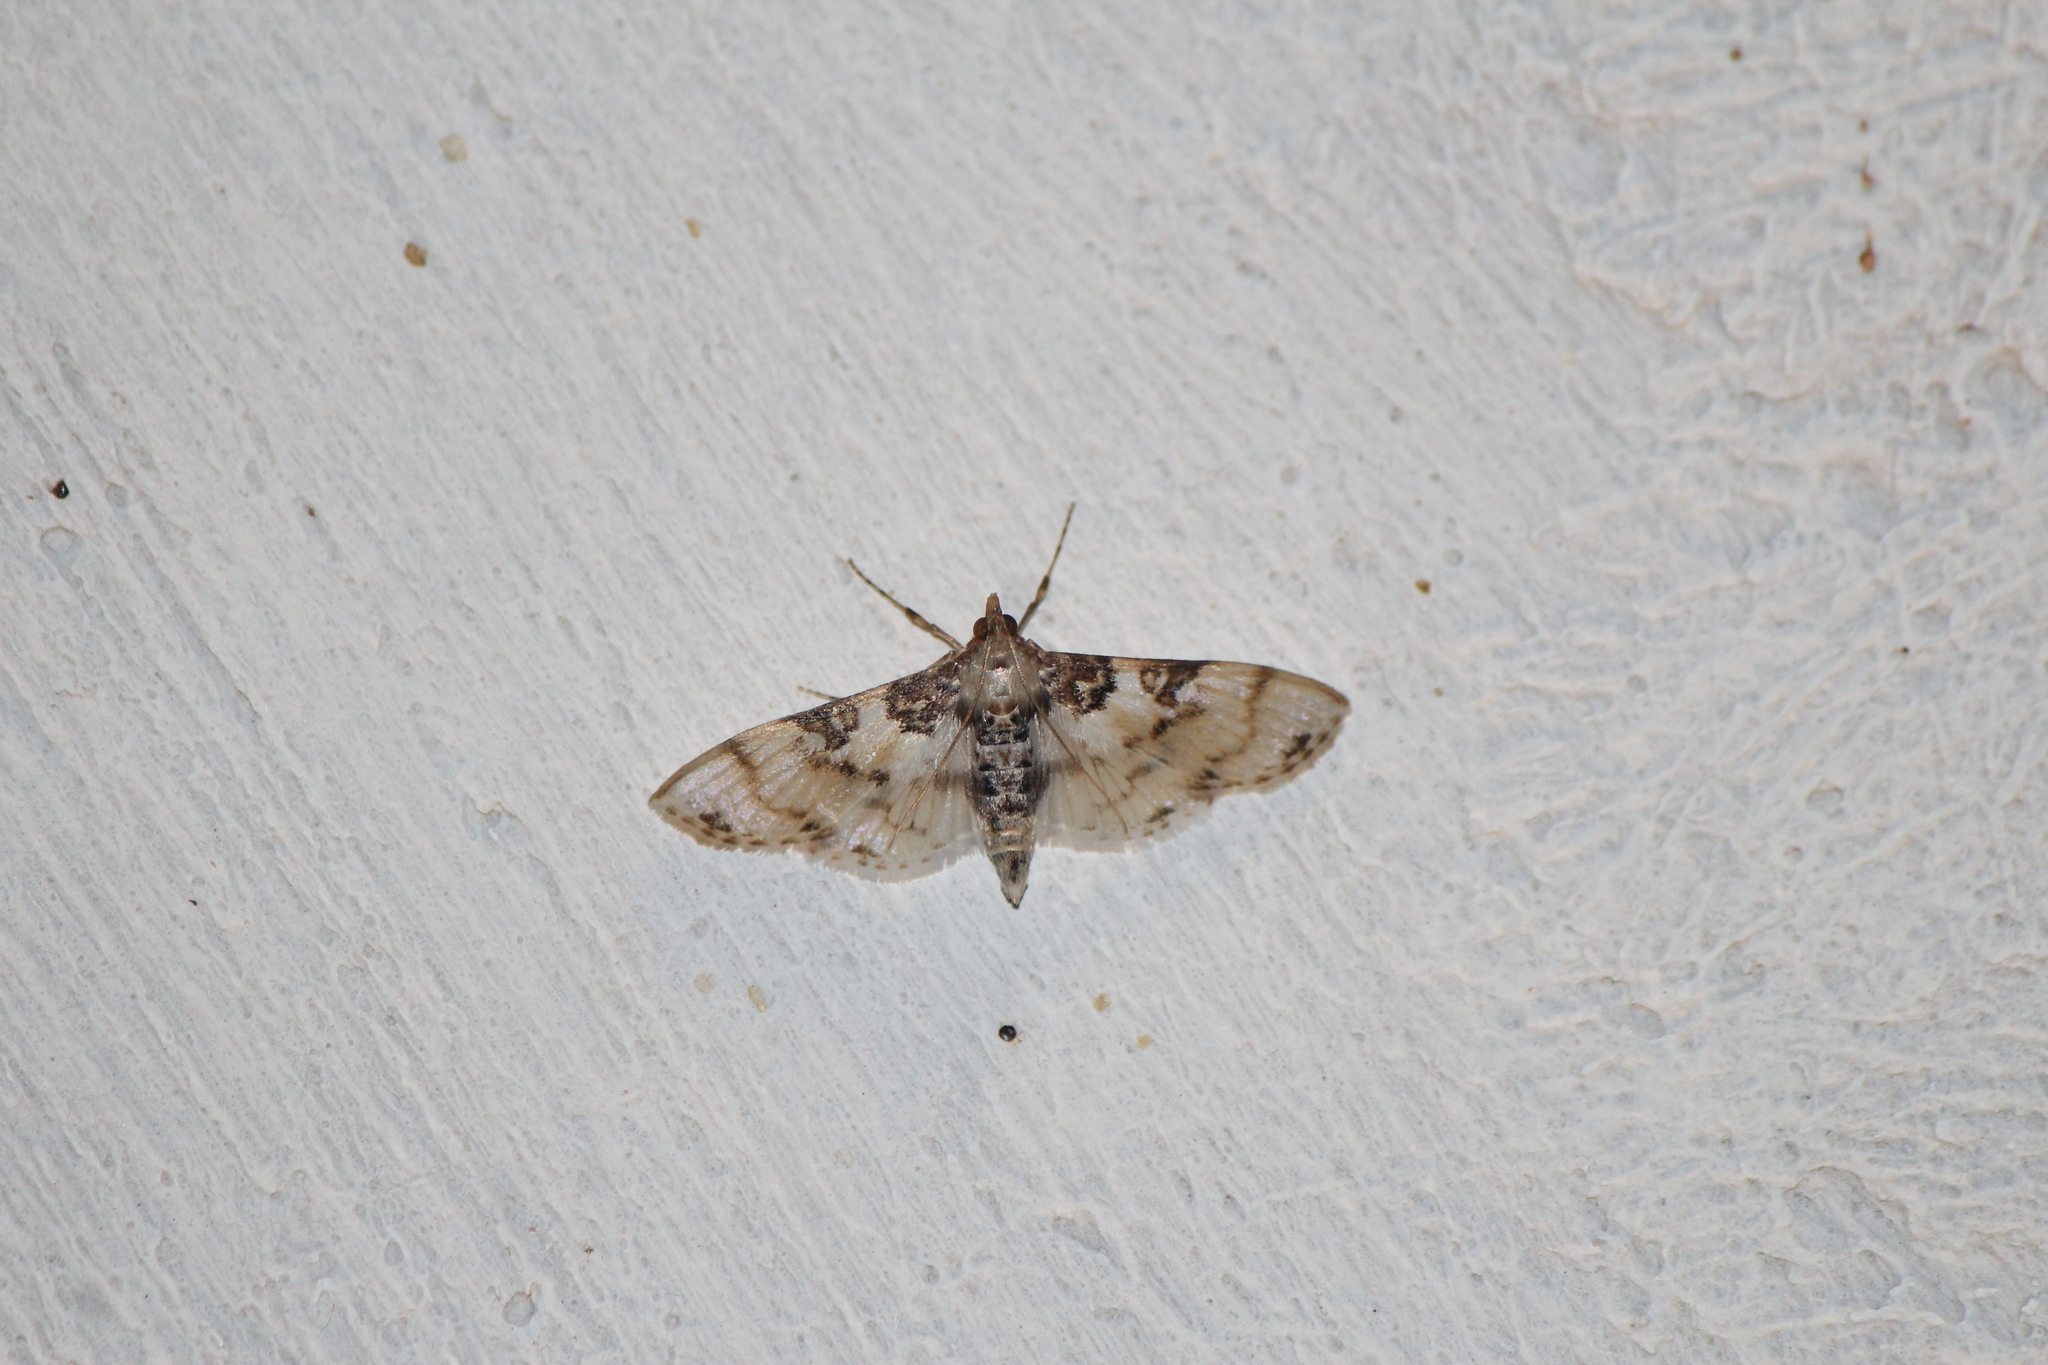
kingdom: Animalia
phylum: Arthropoda
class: Insecta
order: Lepidoptera
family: Crambidae
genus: Azochis
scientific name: Azochis rufidiscalis
